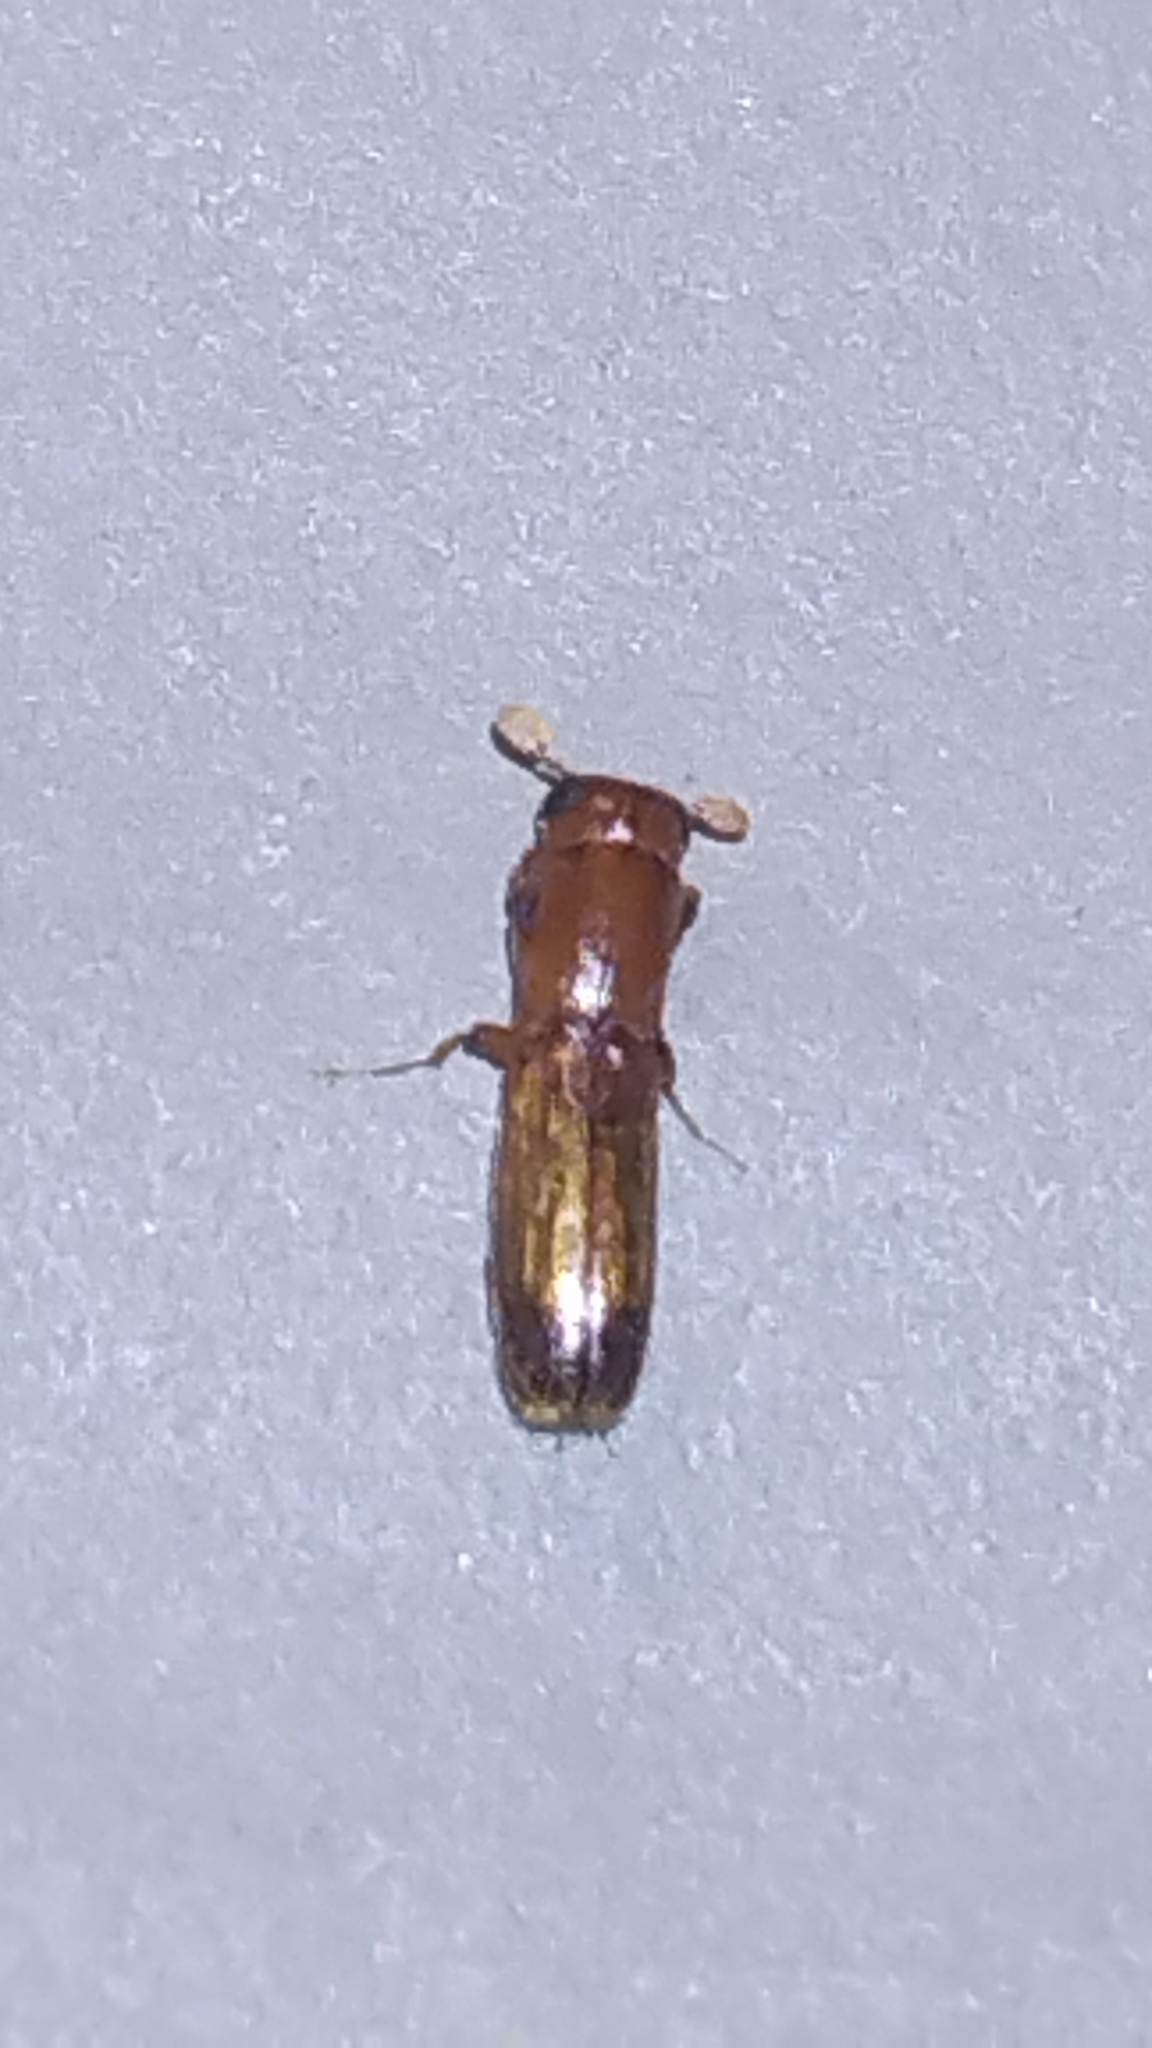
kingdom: Animalia
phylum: Arthropoda
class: Insecta
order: Coleoptera
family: Curculionidae
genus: Euplatypus
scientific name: Euplatypus compositus
